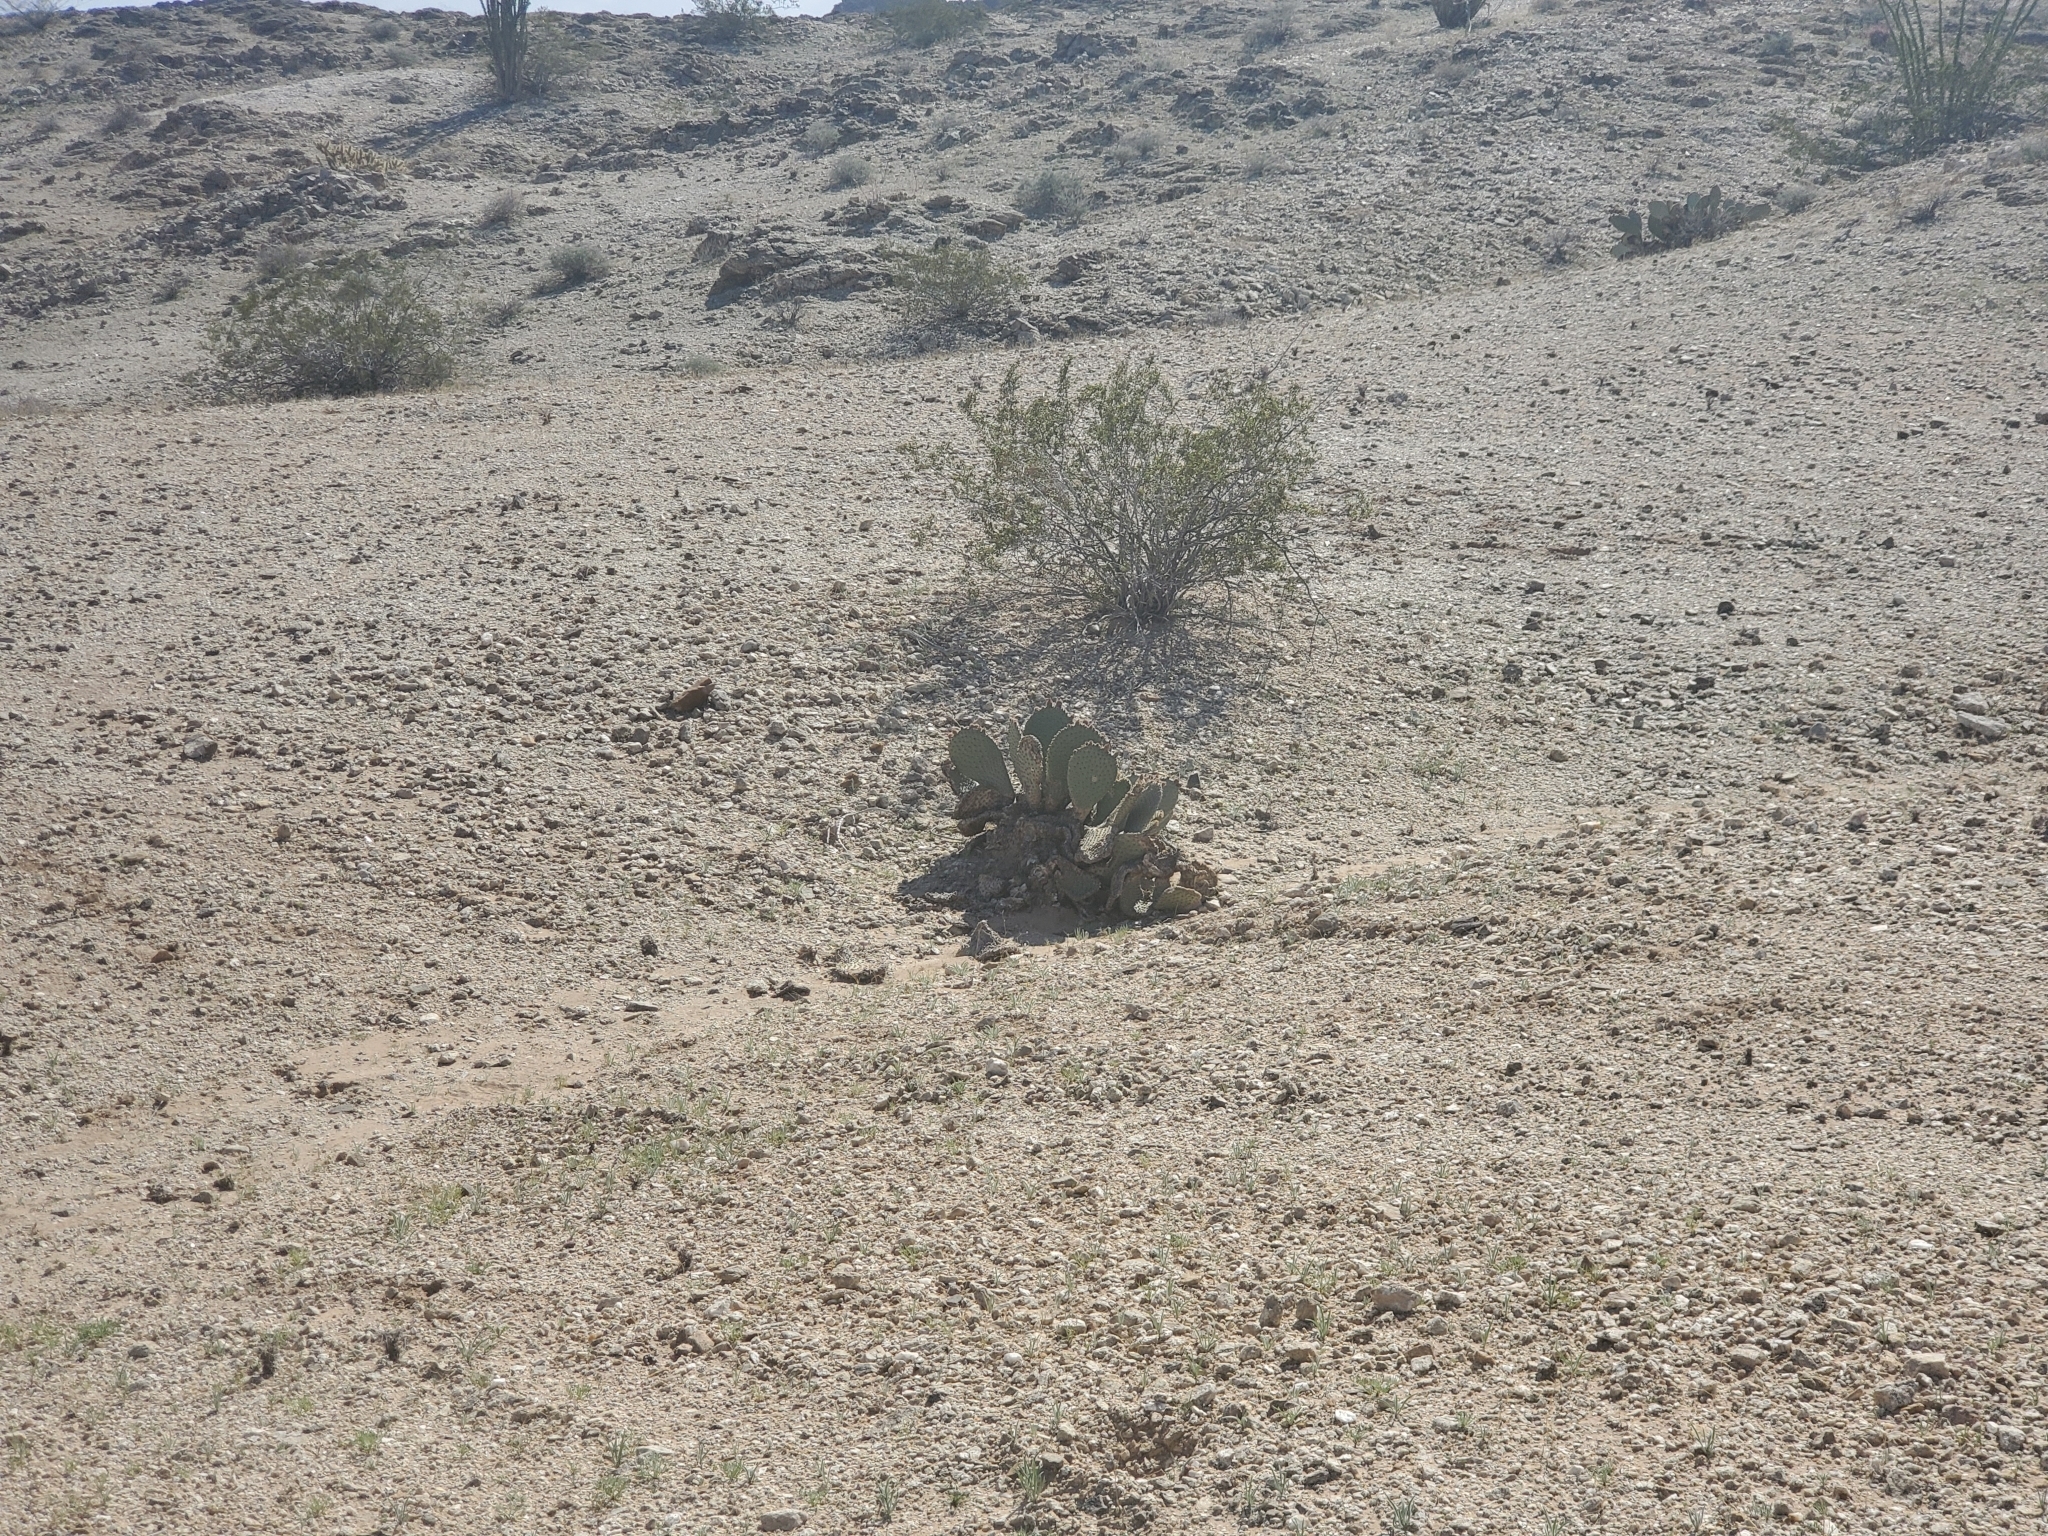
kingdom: Plantae
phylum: Tracheophyta
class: Magnoliopsida
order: Caryophyllales
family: Cactaceae
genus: Opuntia
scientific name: Opuntia basilaris
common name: Beavertail prickly-pear
